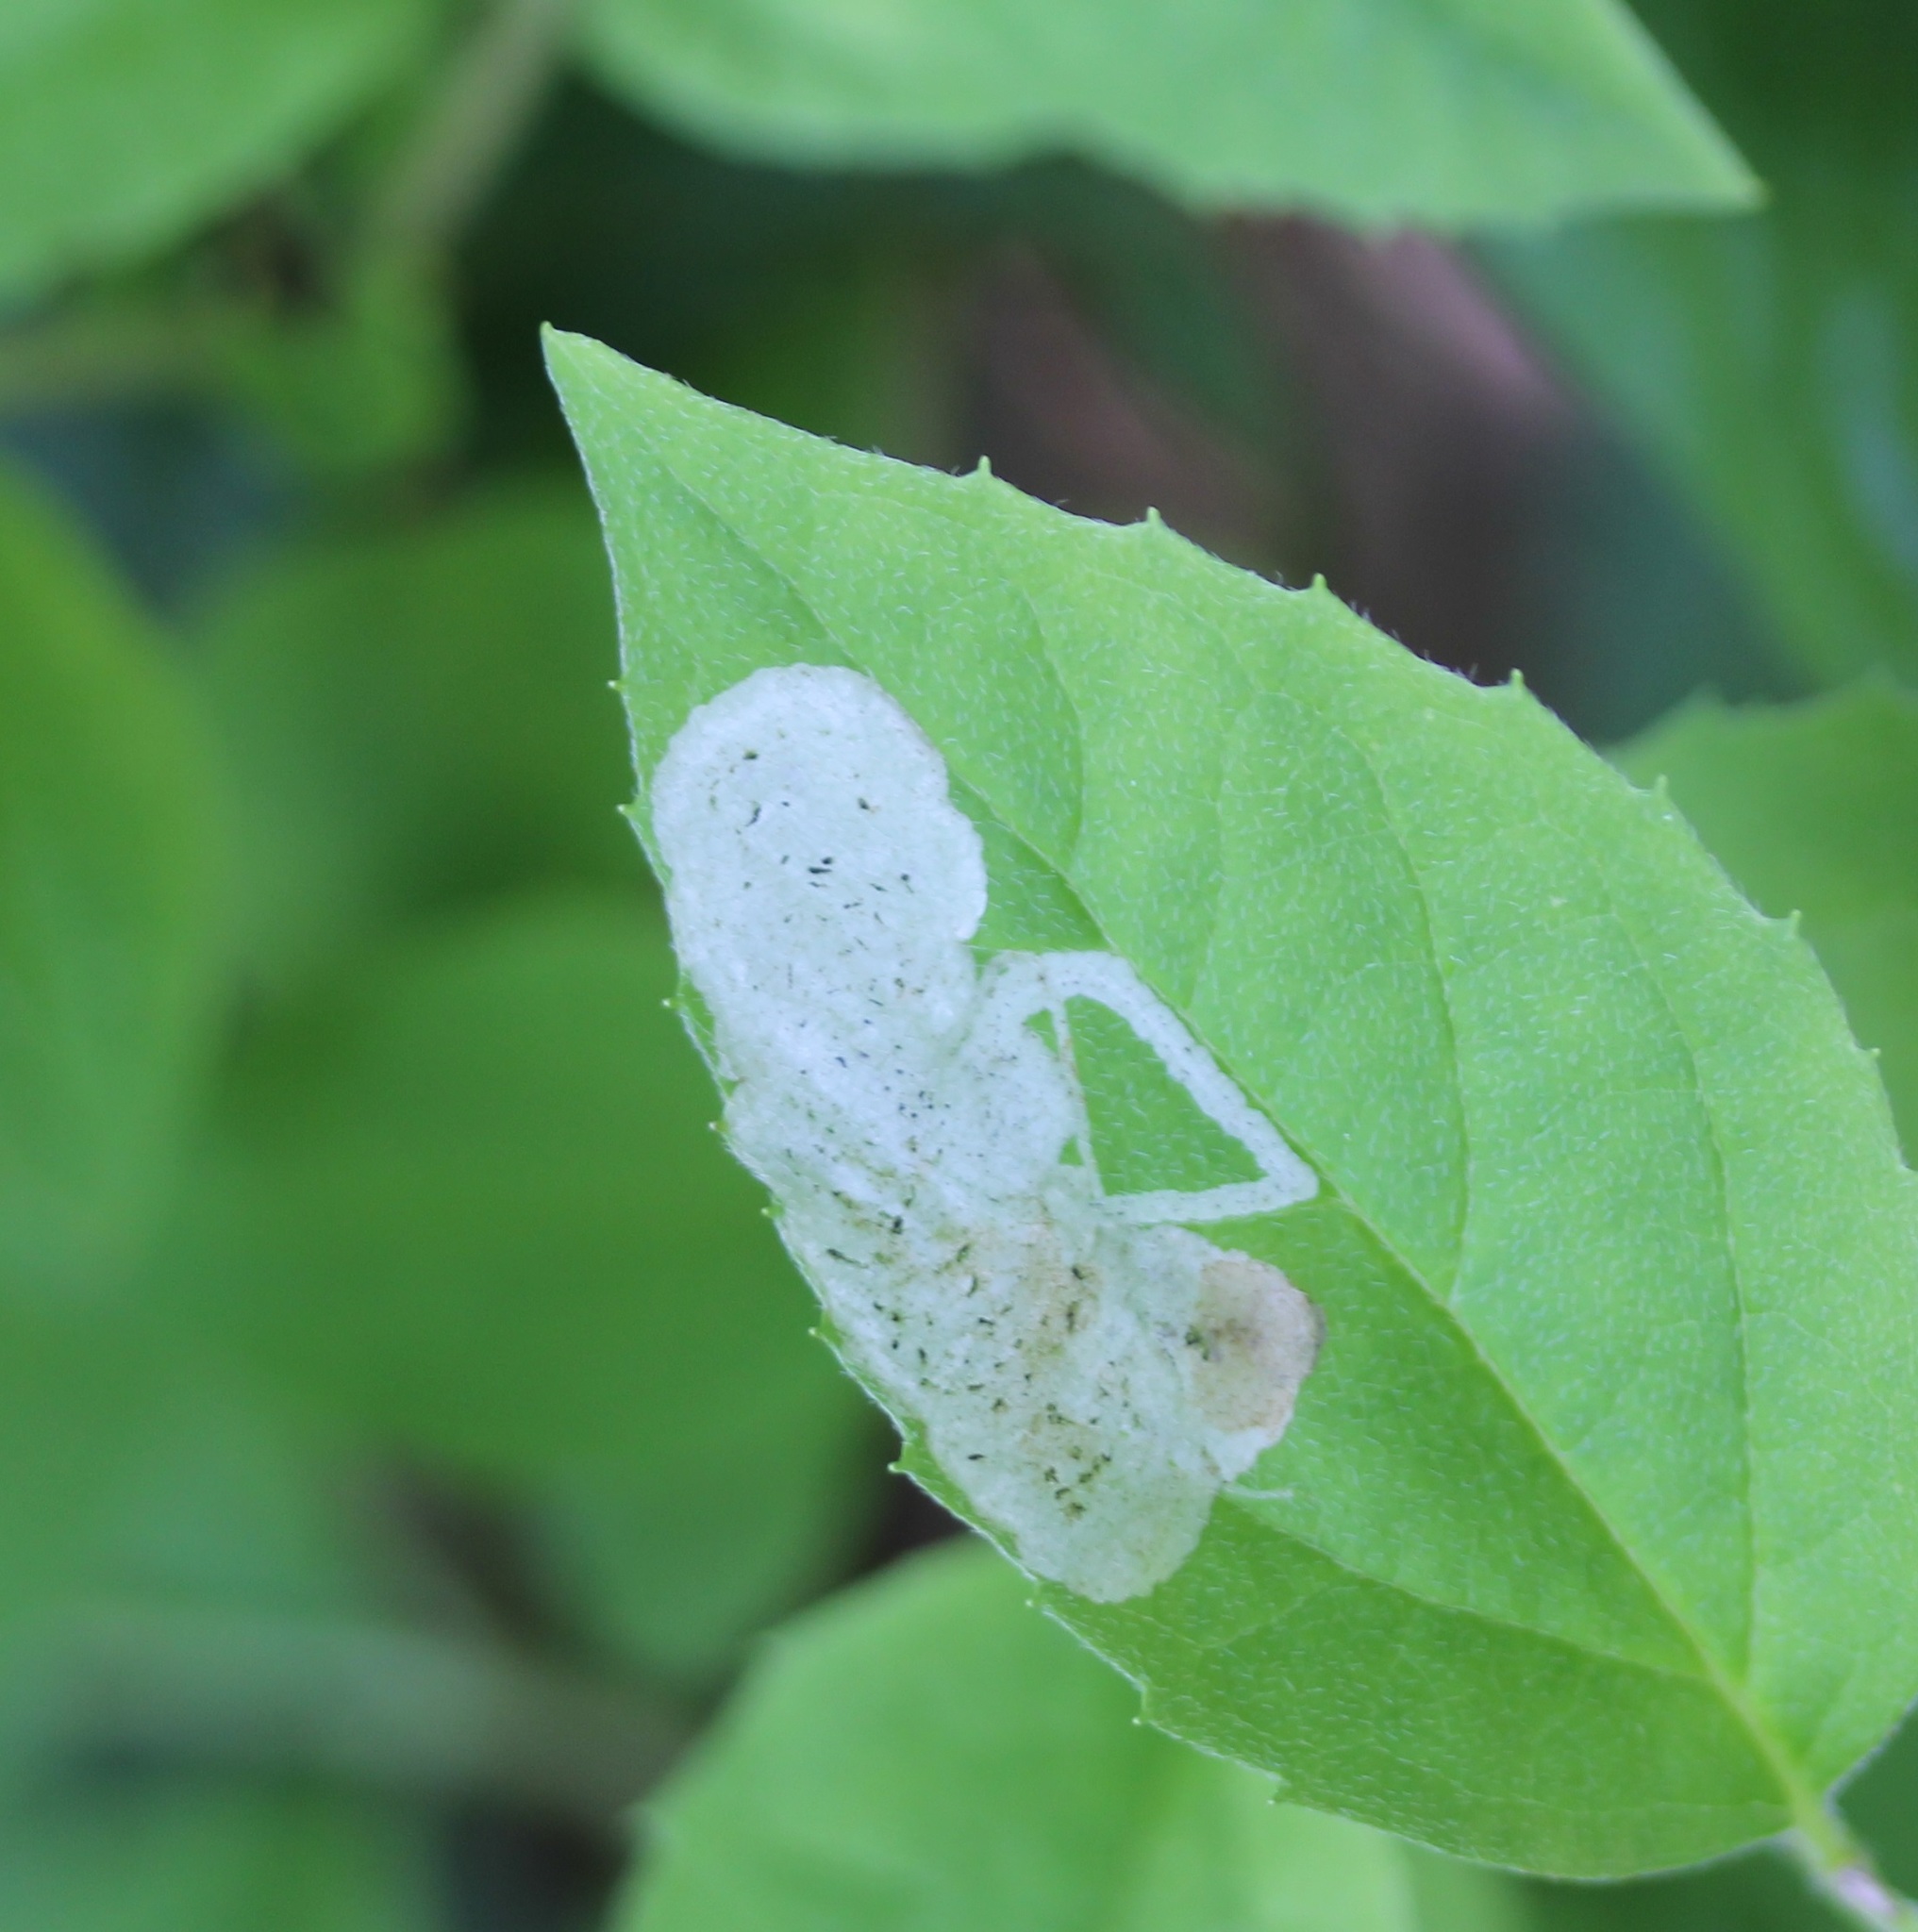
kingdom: Animalia
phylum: Arthropoda
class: Insecta
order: Diptera
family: Agromyzidae
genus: Liriomyza
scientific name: Liriomyza philadelphivora
